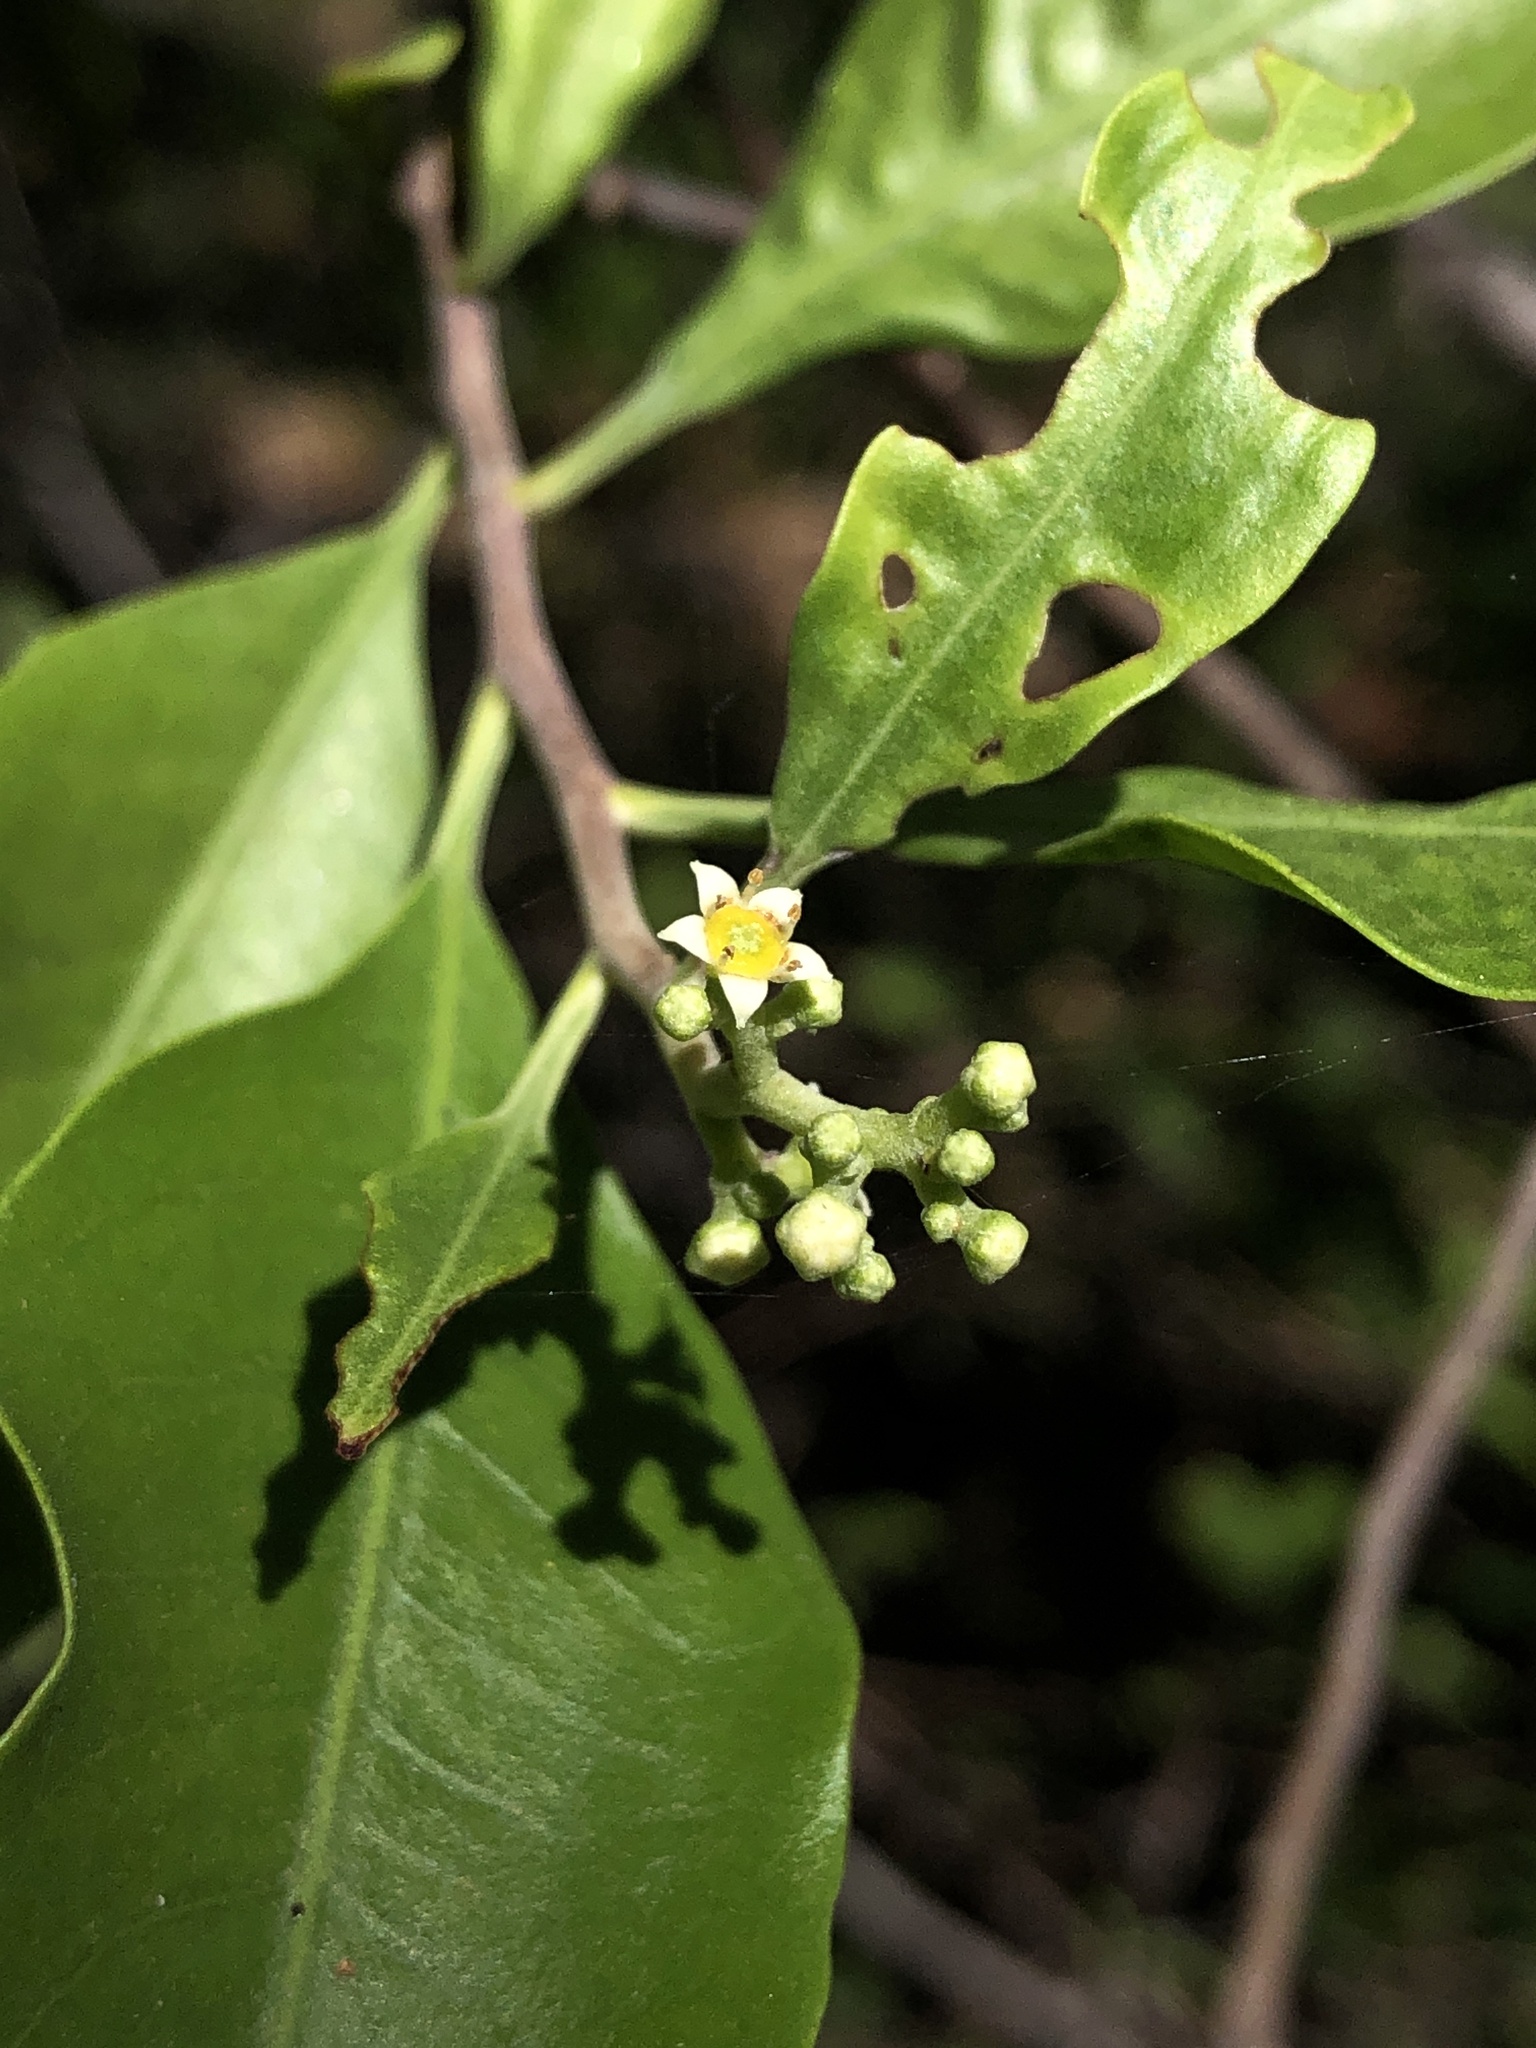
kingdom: Plantae
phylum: Tracheophyta
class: Magnoliopsida
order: Sapindales
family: Rutaceae
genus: Geijera
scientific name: Geijera salicifolia
